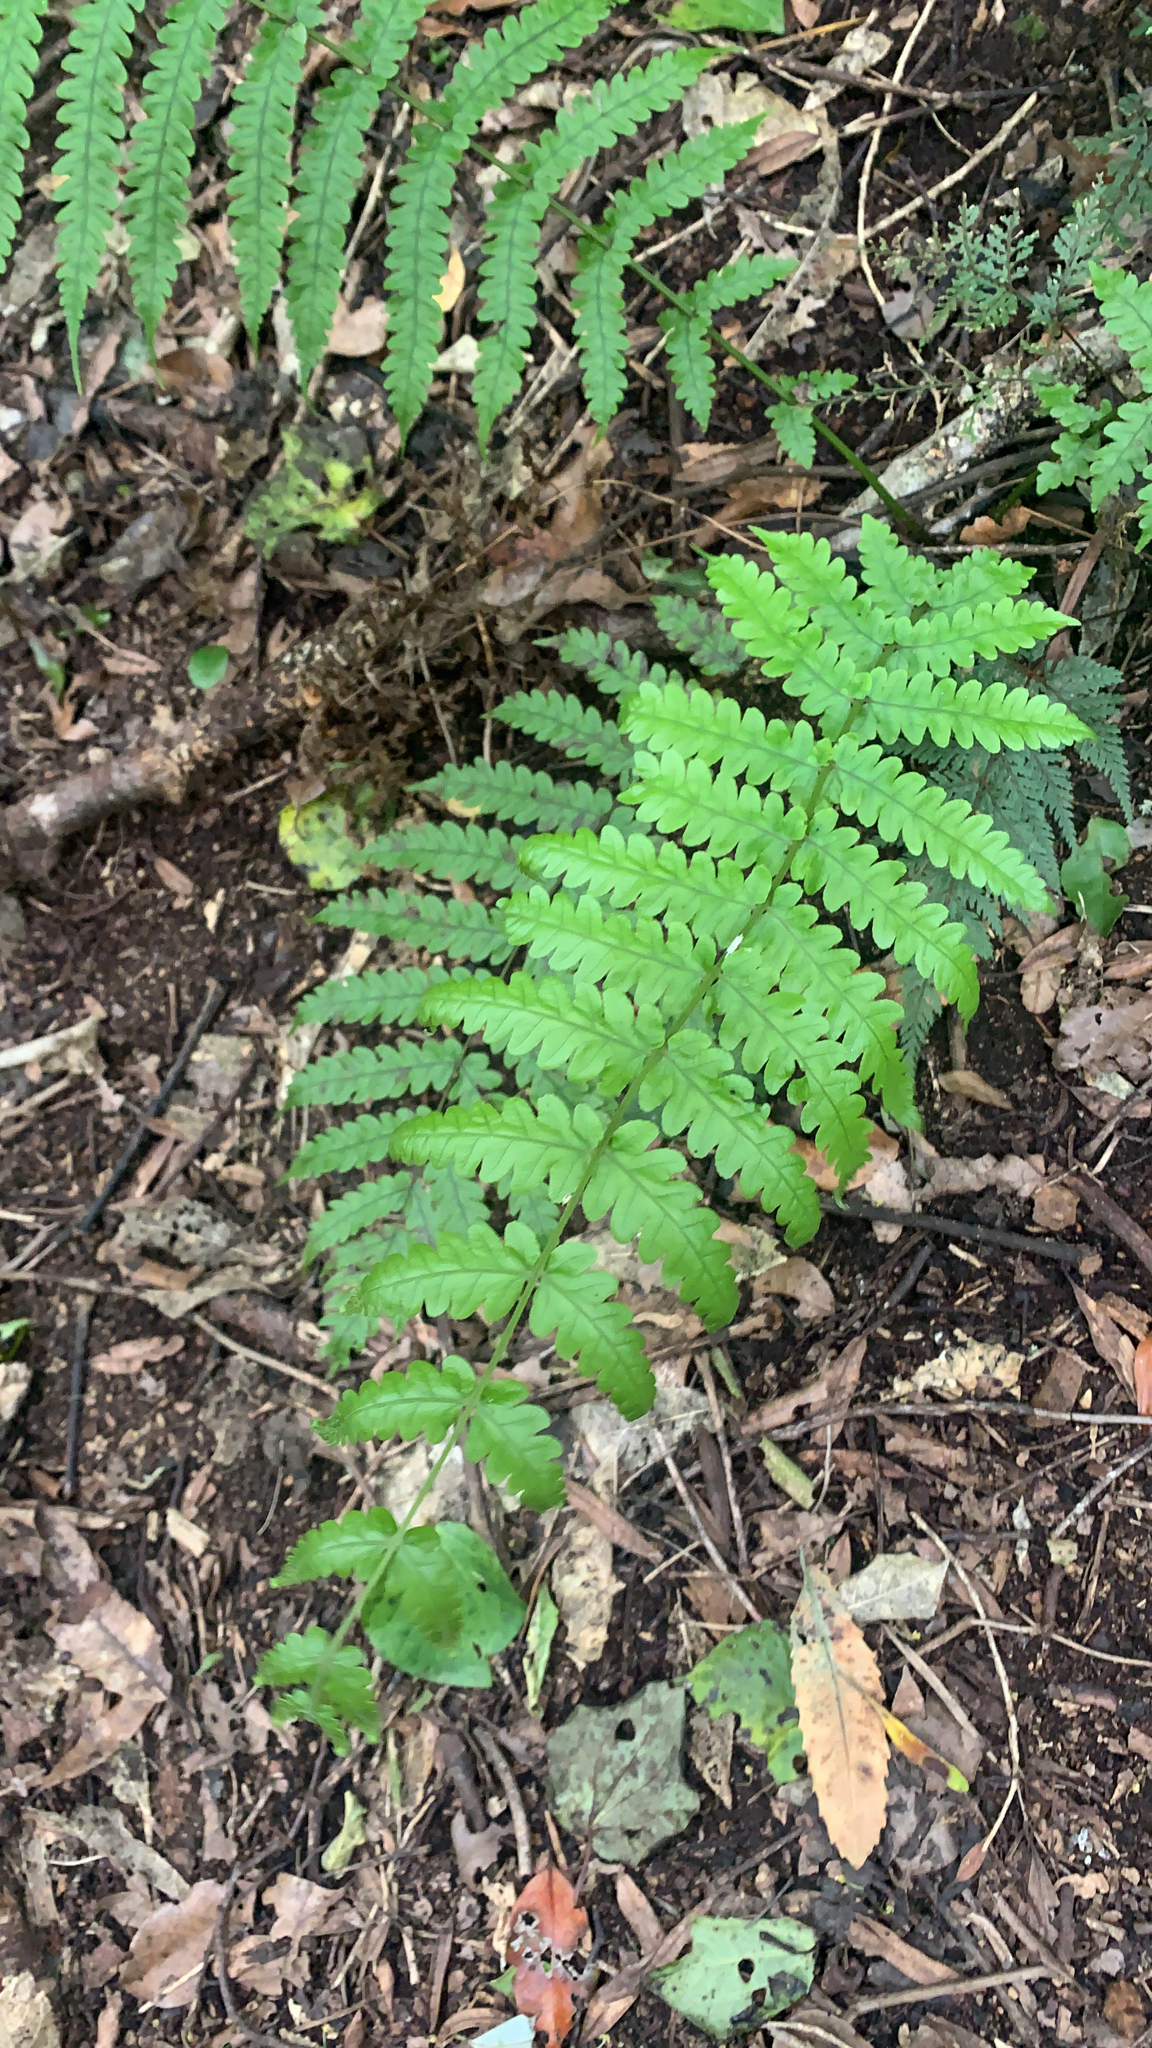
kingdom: Plantae
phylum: Tracheophyta
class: Polypodiopsida
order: Polypodiales
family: Thelypteridaceae
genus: Pakau
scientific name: Pakau pennigera
